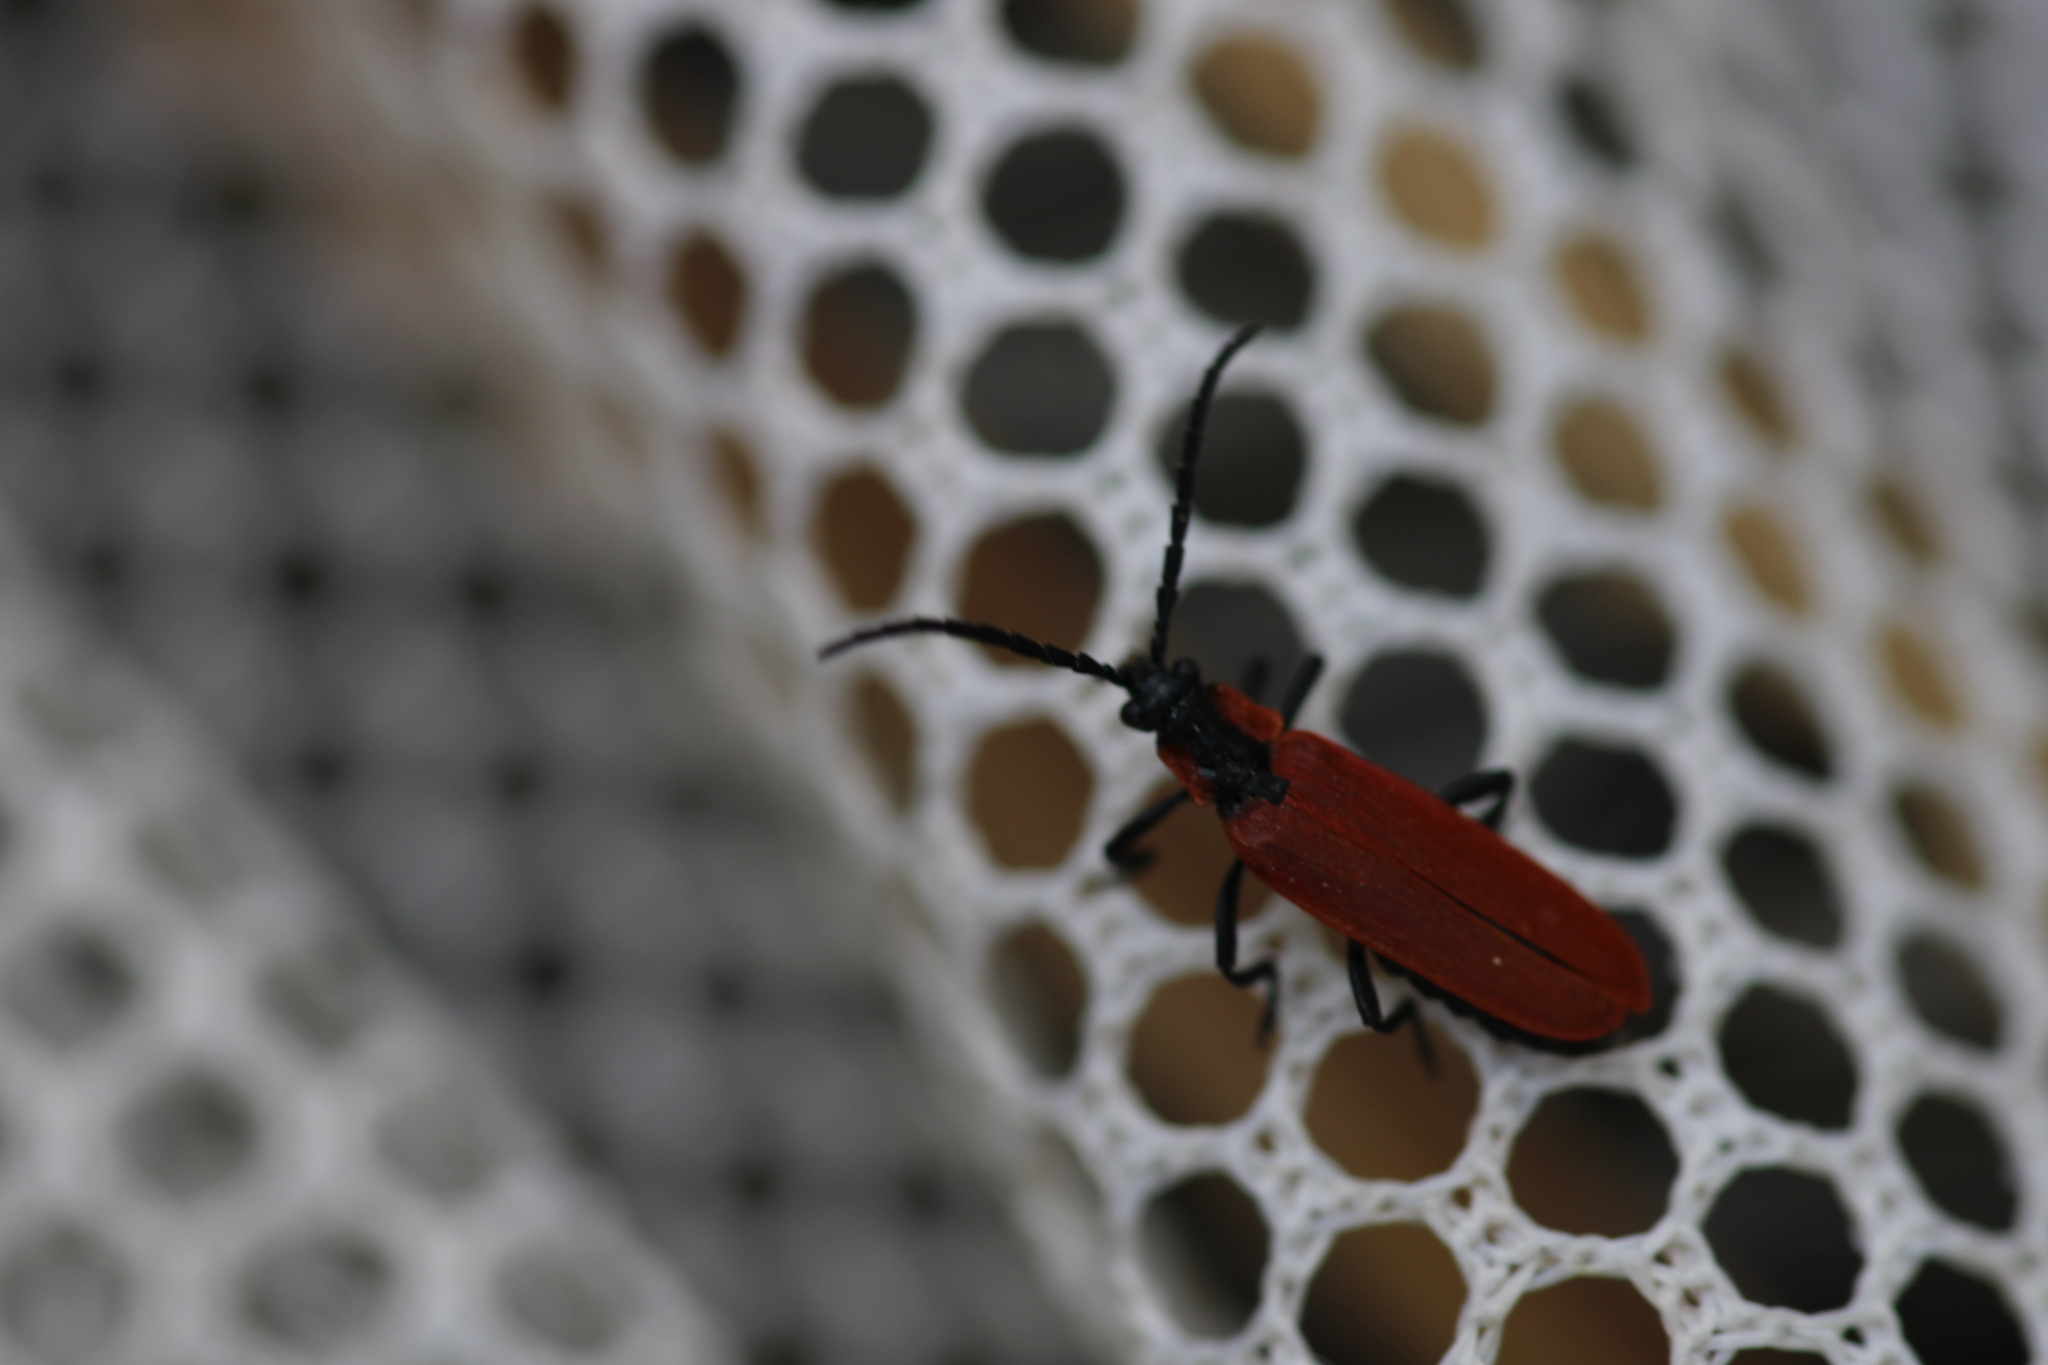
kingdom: Animalia
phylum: Arthropoda
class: Insecta
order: Coleoptera
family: Lycidae
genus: Lygistopterus
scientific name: Lygistopterus sanguineus
